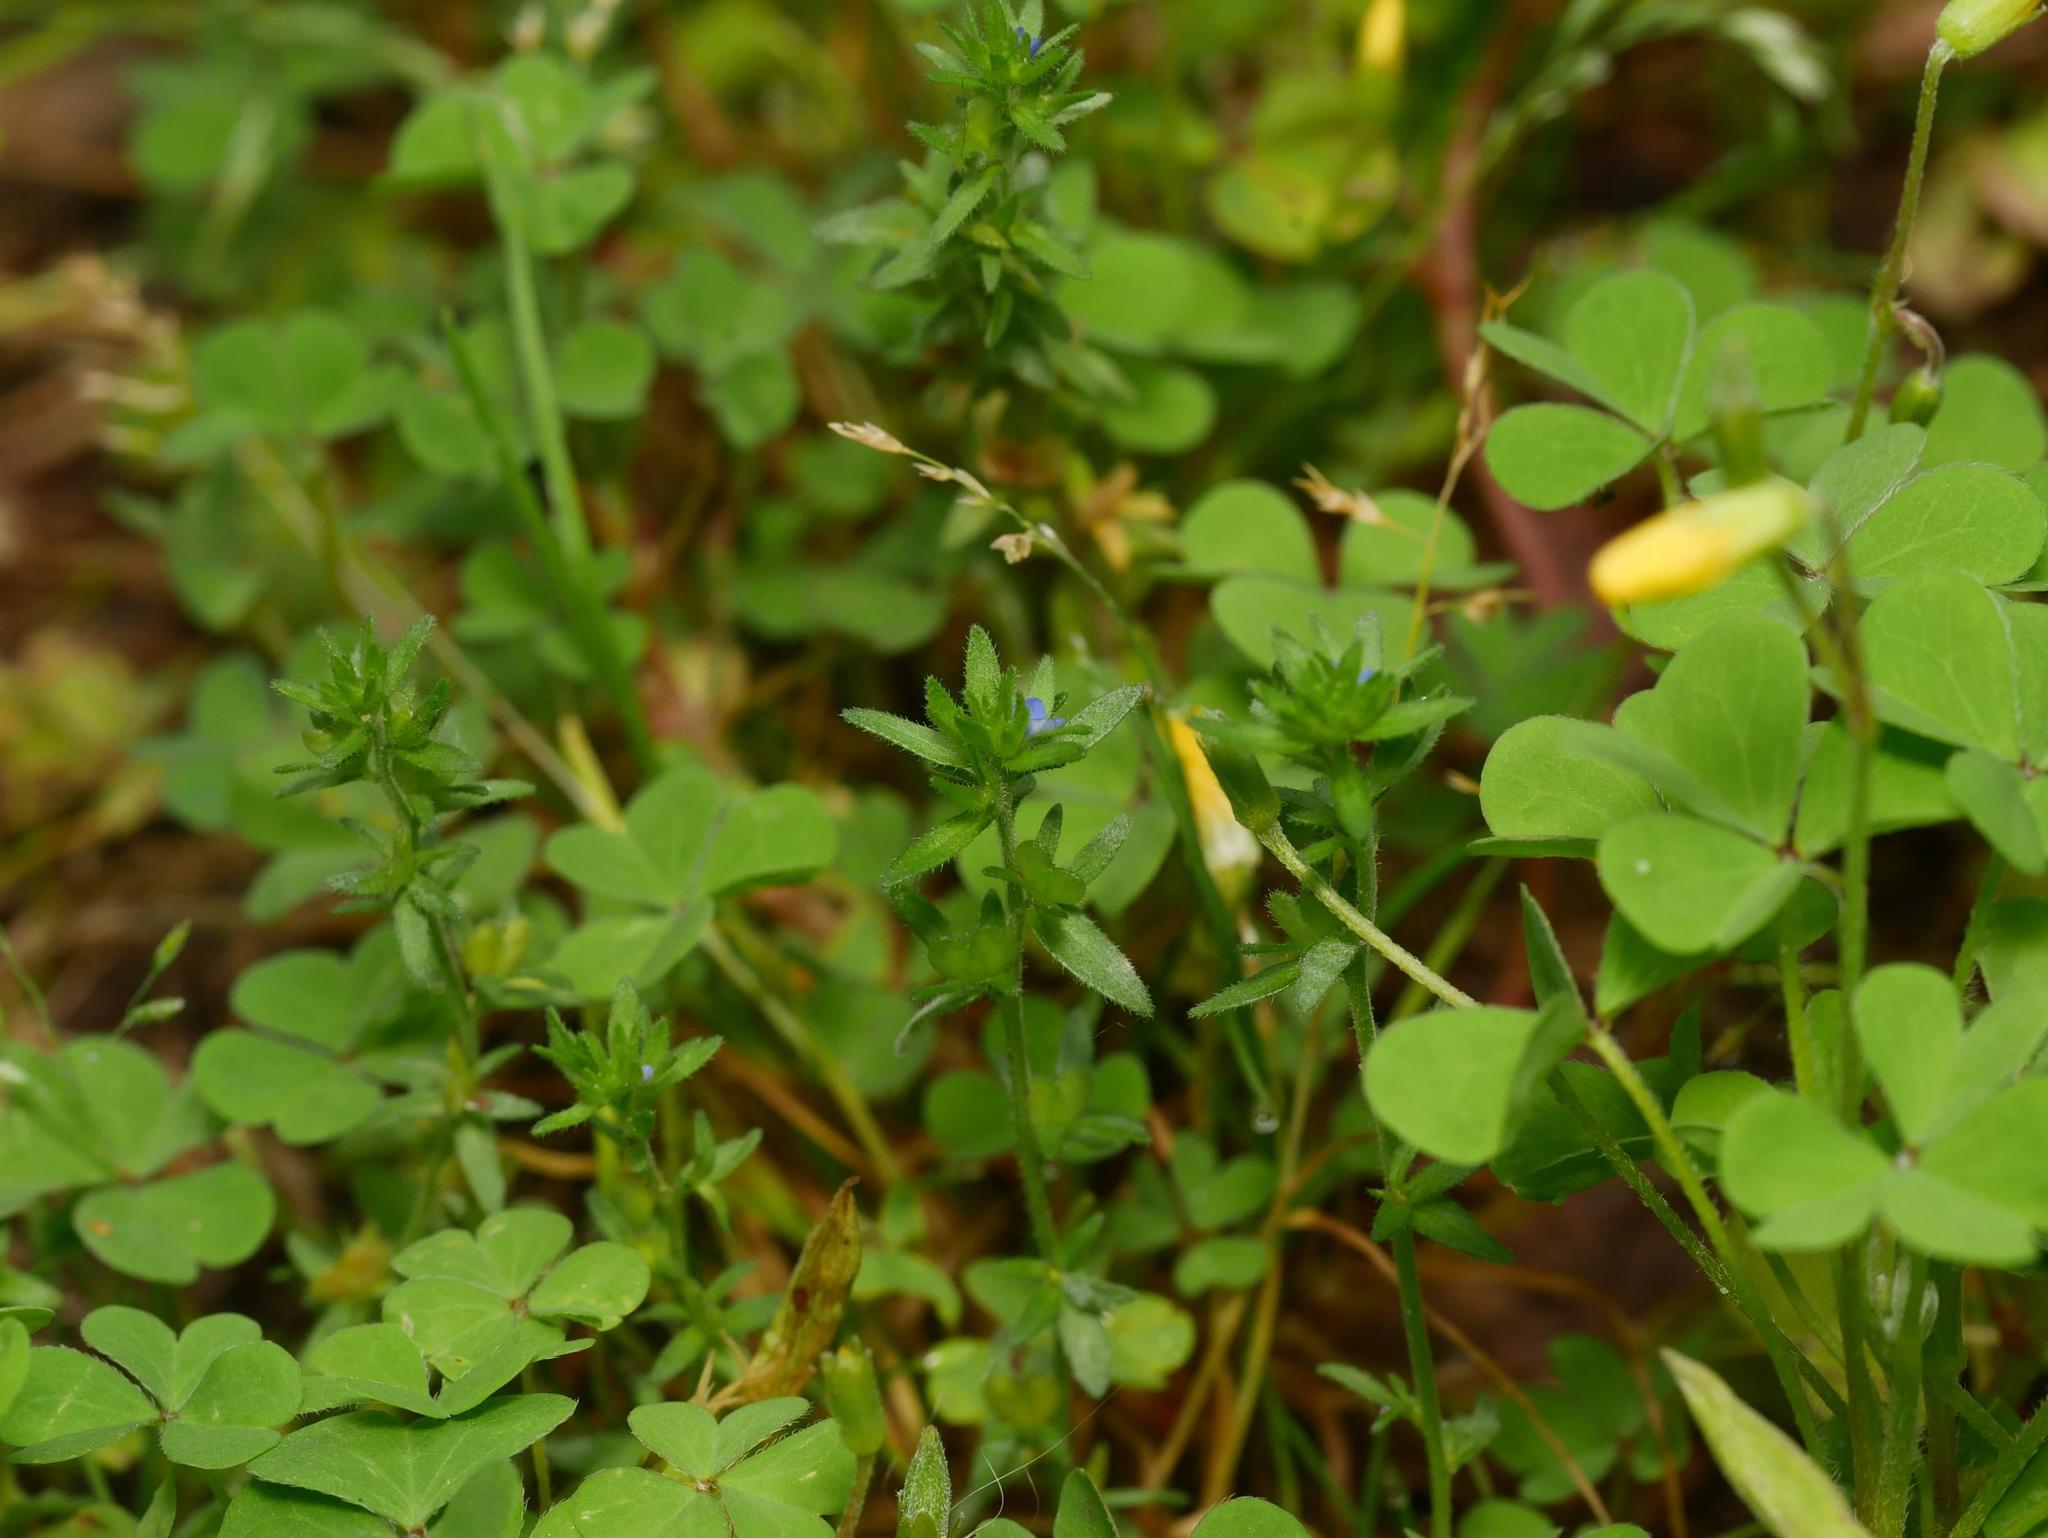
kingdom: Plantae
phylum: Tracheophyta
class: Magnoliopsida
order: Lamiales
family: Plantaginaceae
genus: Veronica
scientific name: Veronica arvensis
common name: Corn speedwell
